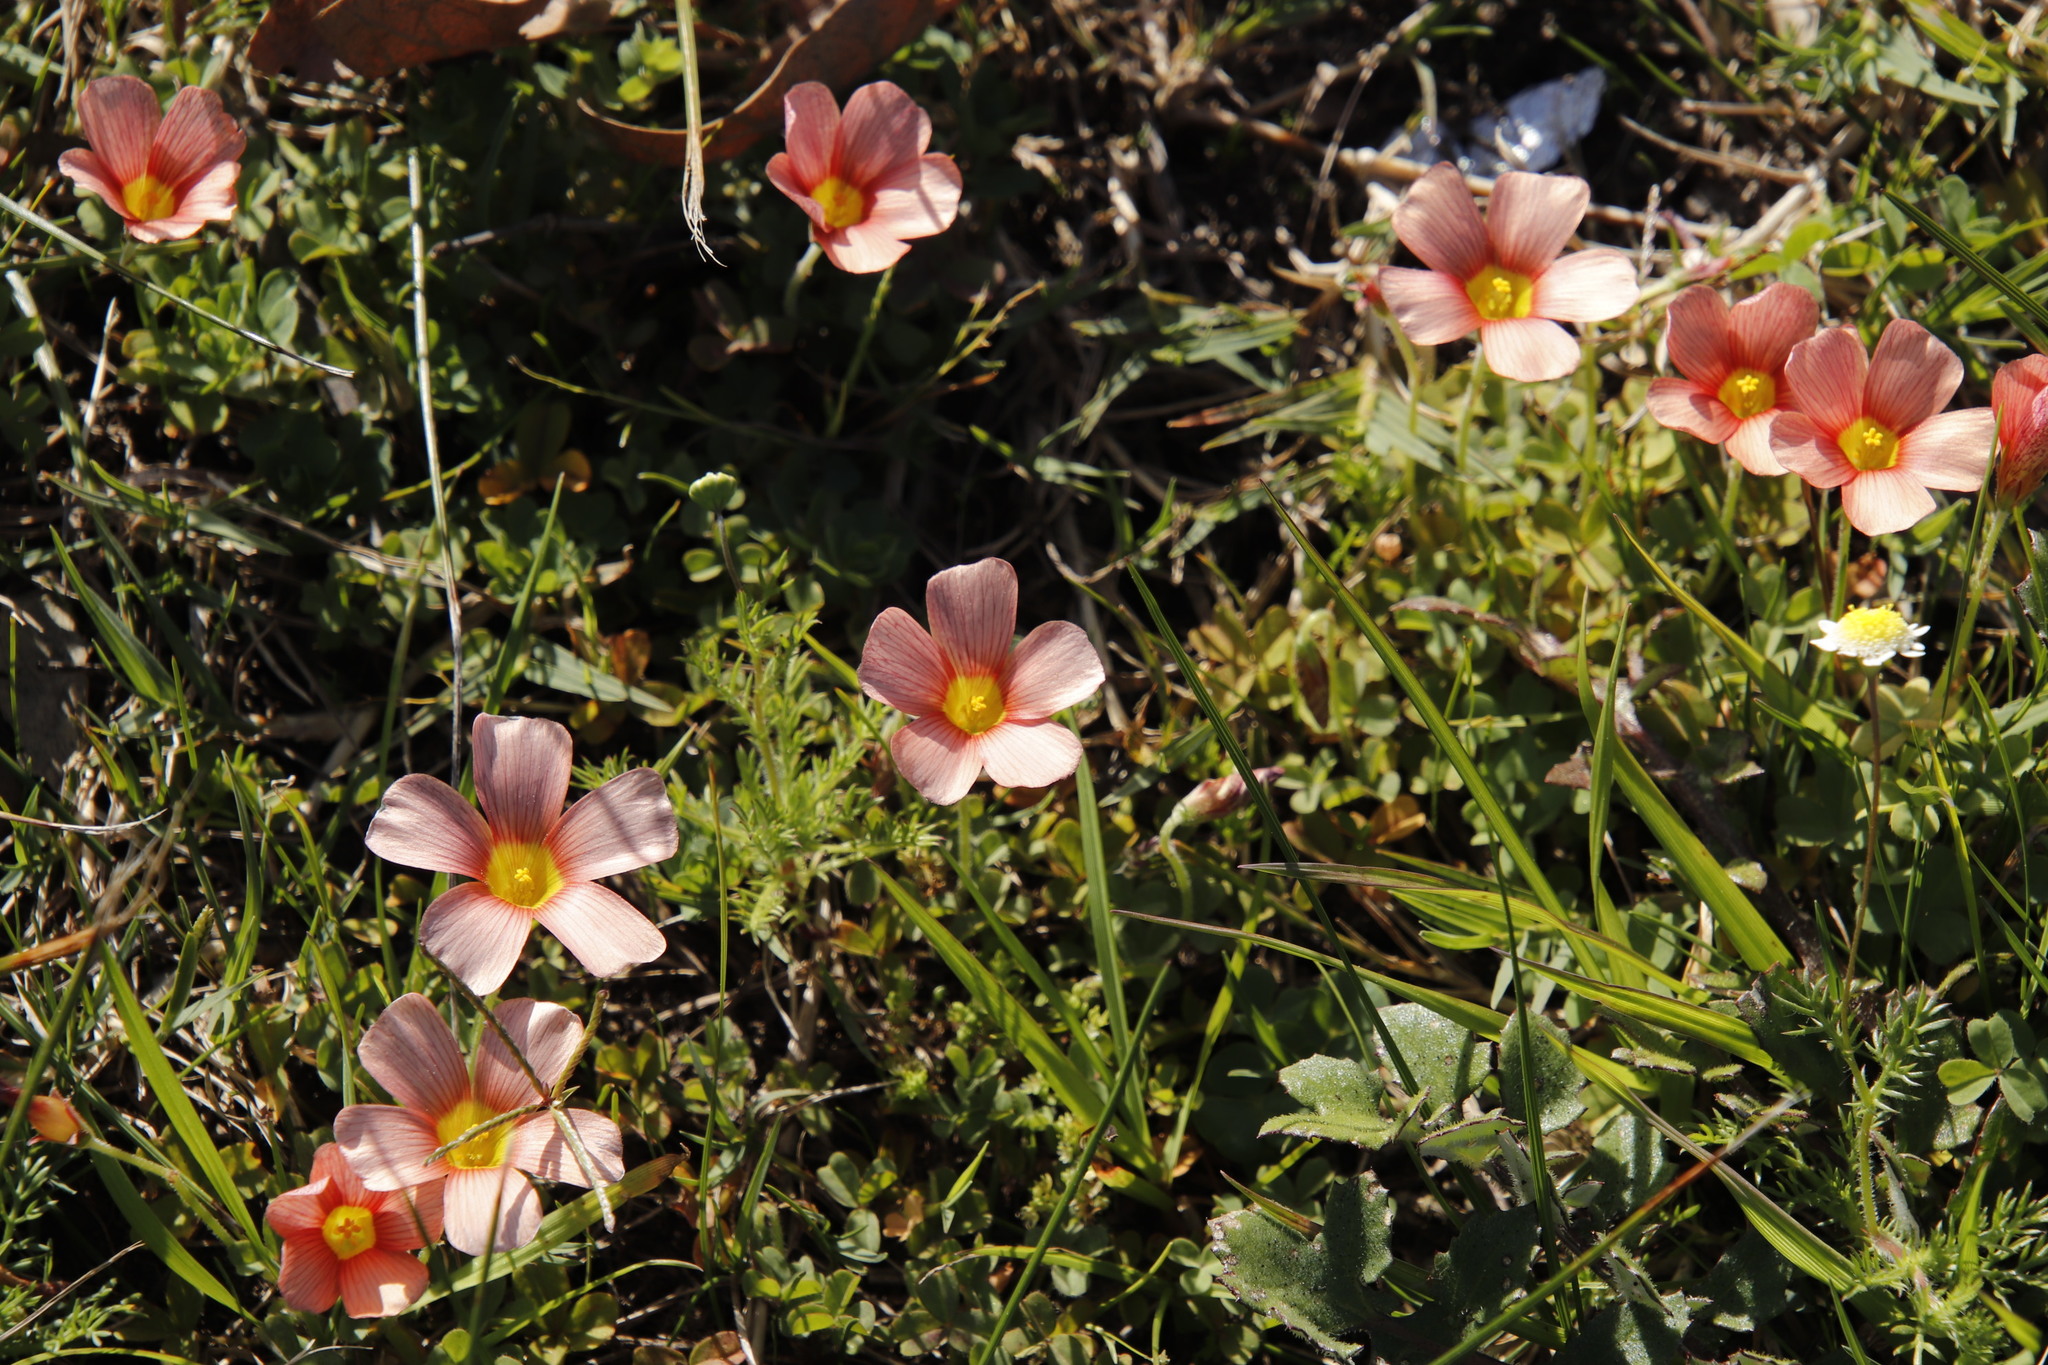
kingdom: Plantae
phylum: Tracheophyta
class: Magnoliopsida
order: Oxalidales
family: Oxalidaceae
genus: Oxalis
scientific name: Oxalis obtusa
